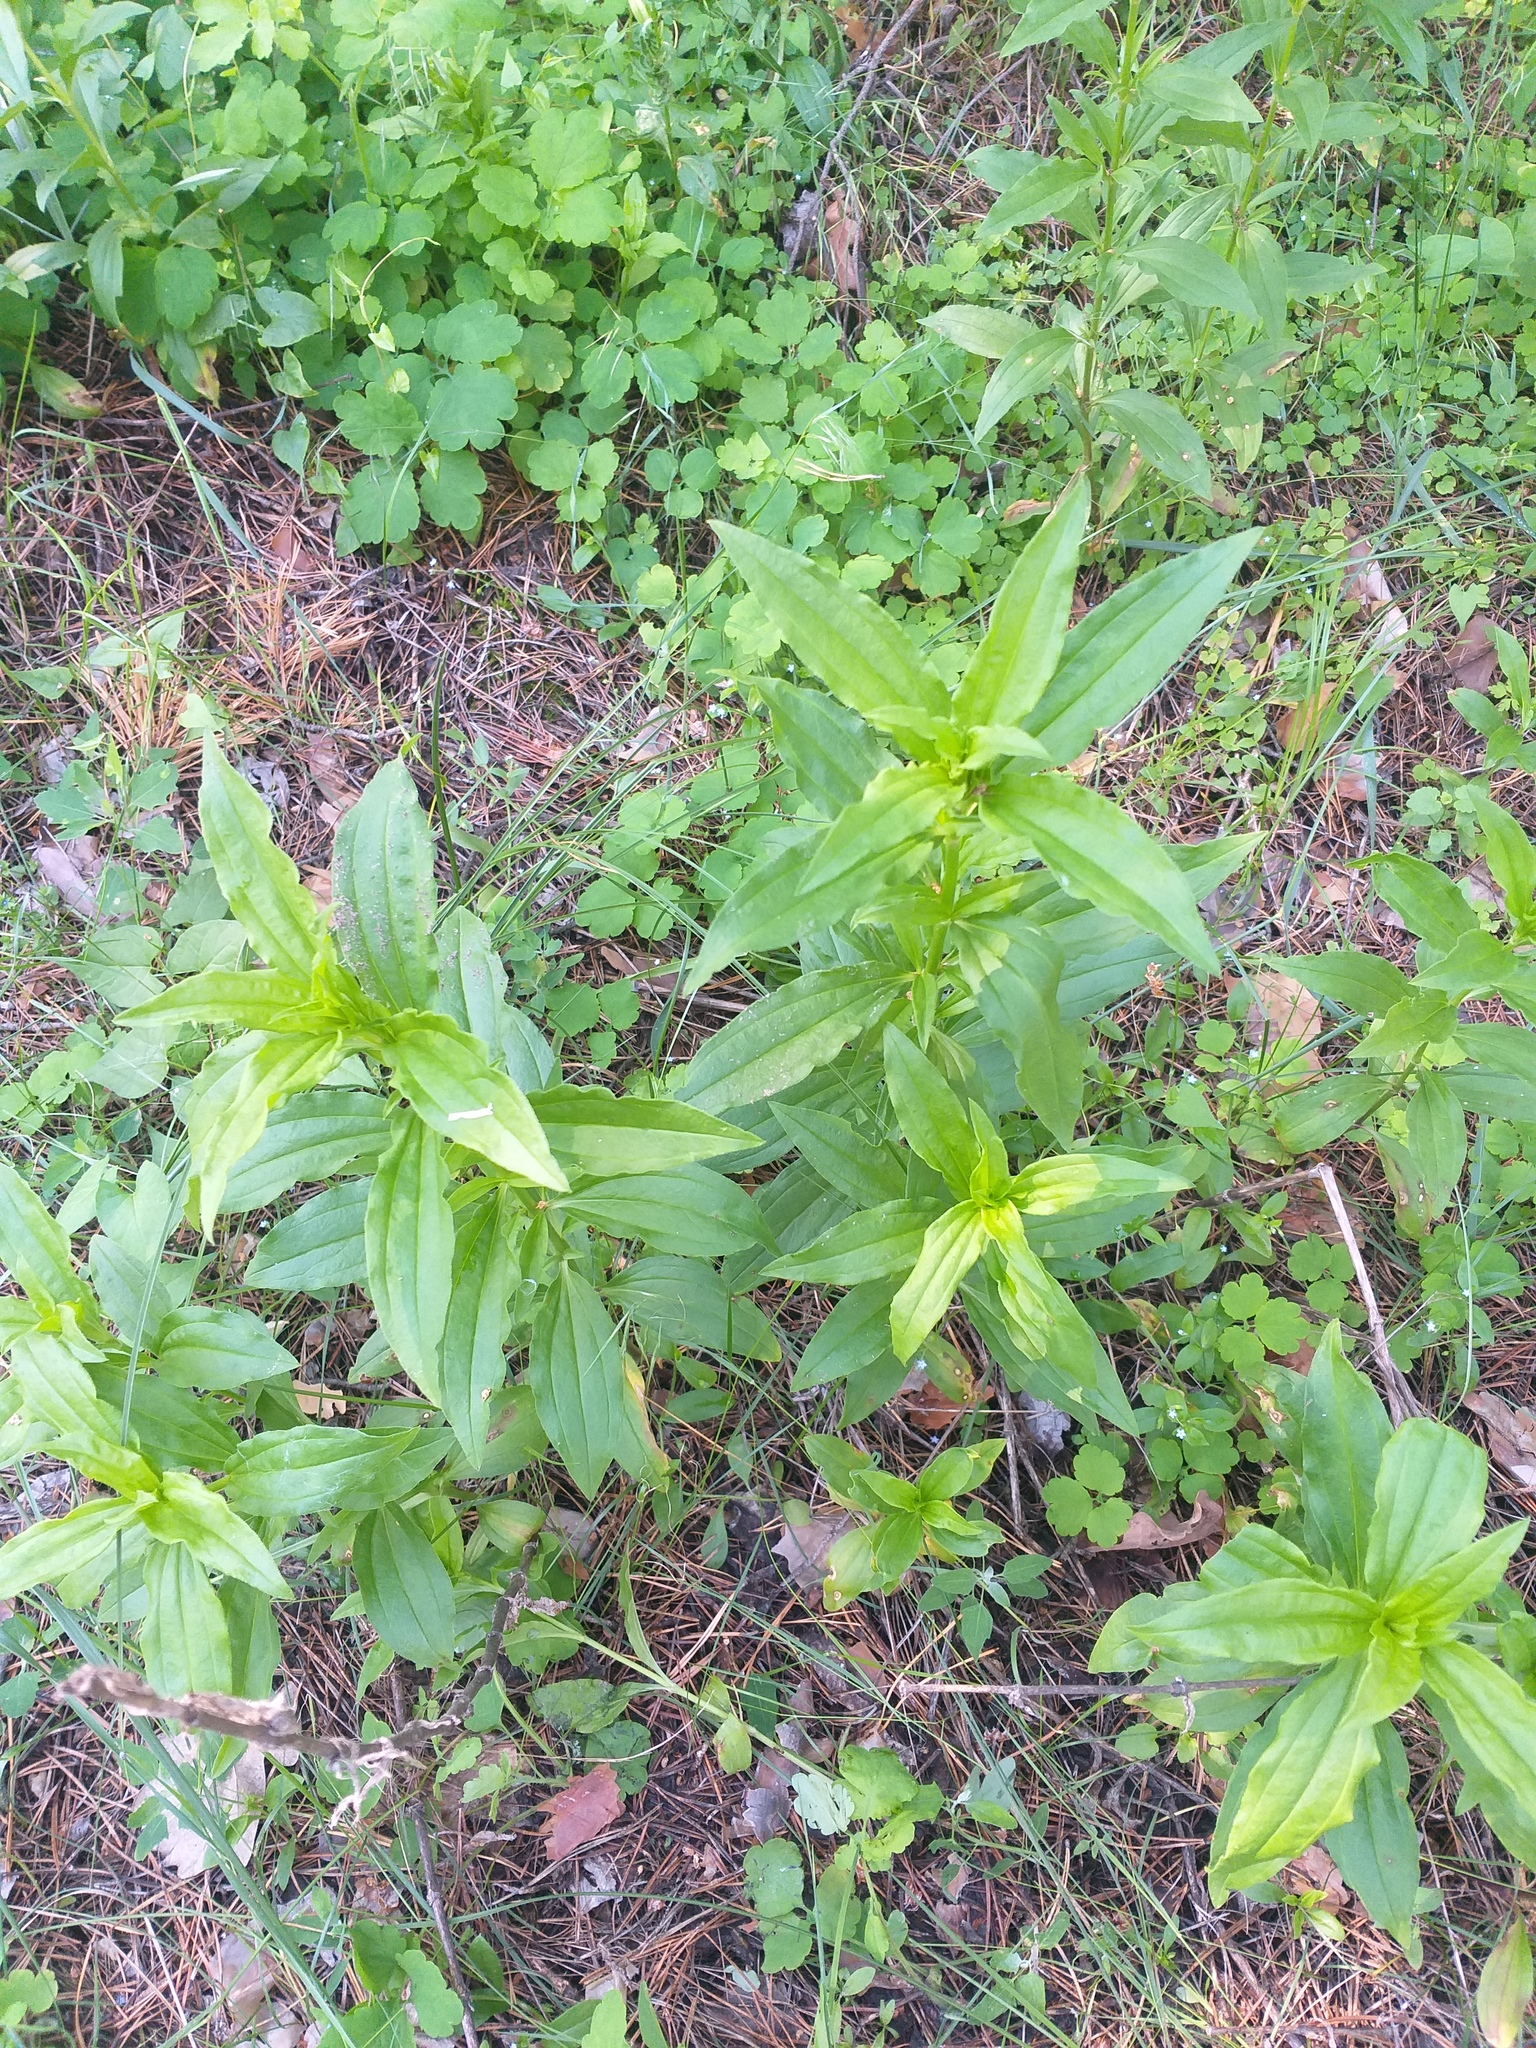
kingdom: Plantae
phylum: Tracheophyta
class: Magnoliopsida
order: Caryophyllales
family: Caryophyllaceae
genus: Saponaria
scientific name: Saponaria officinalis
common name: Soapwort
